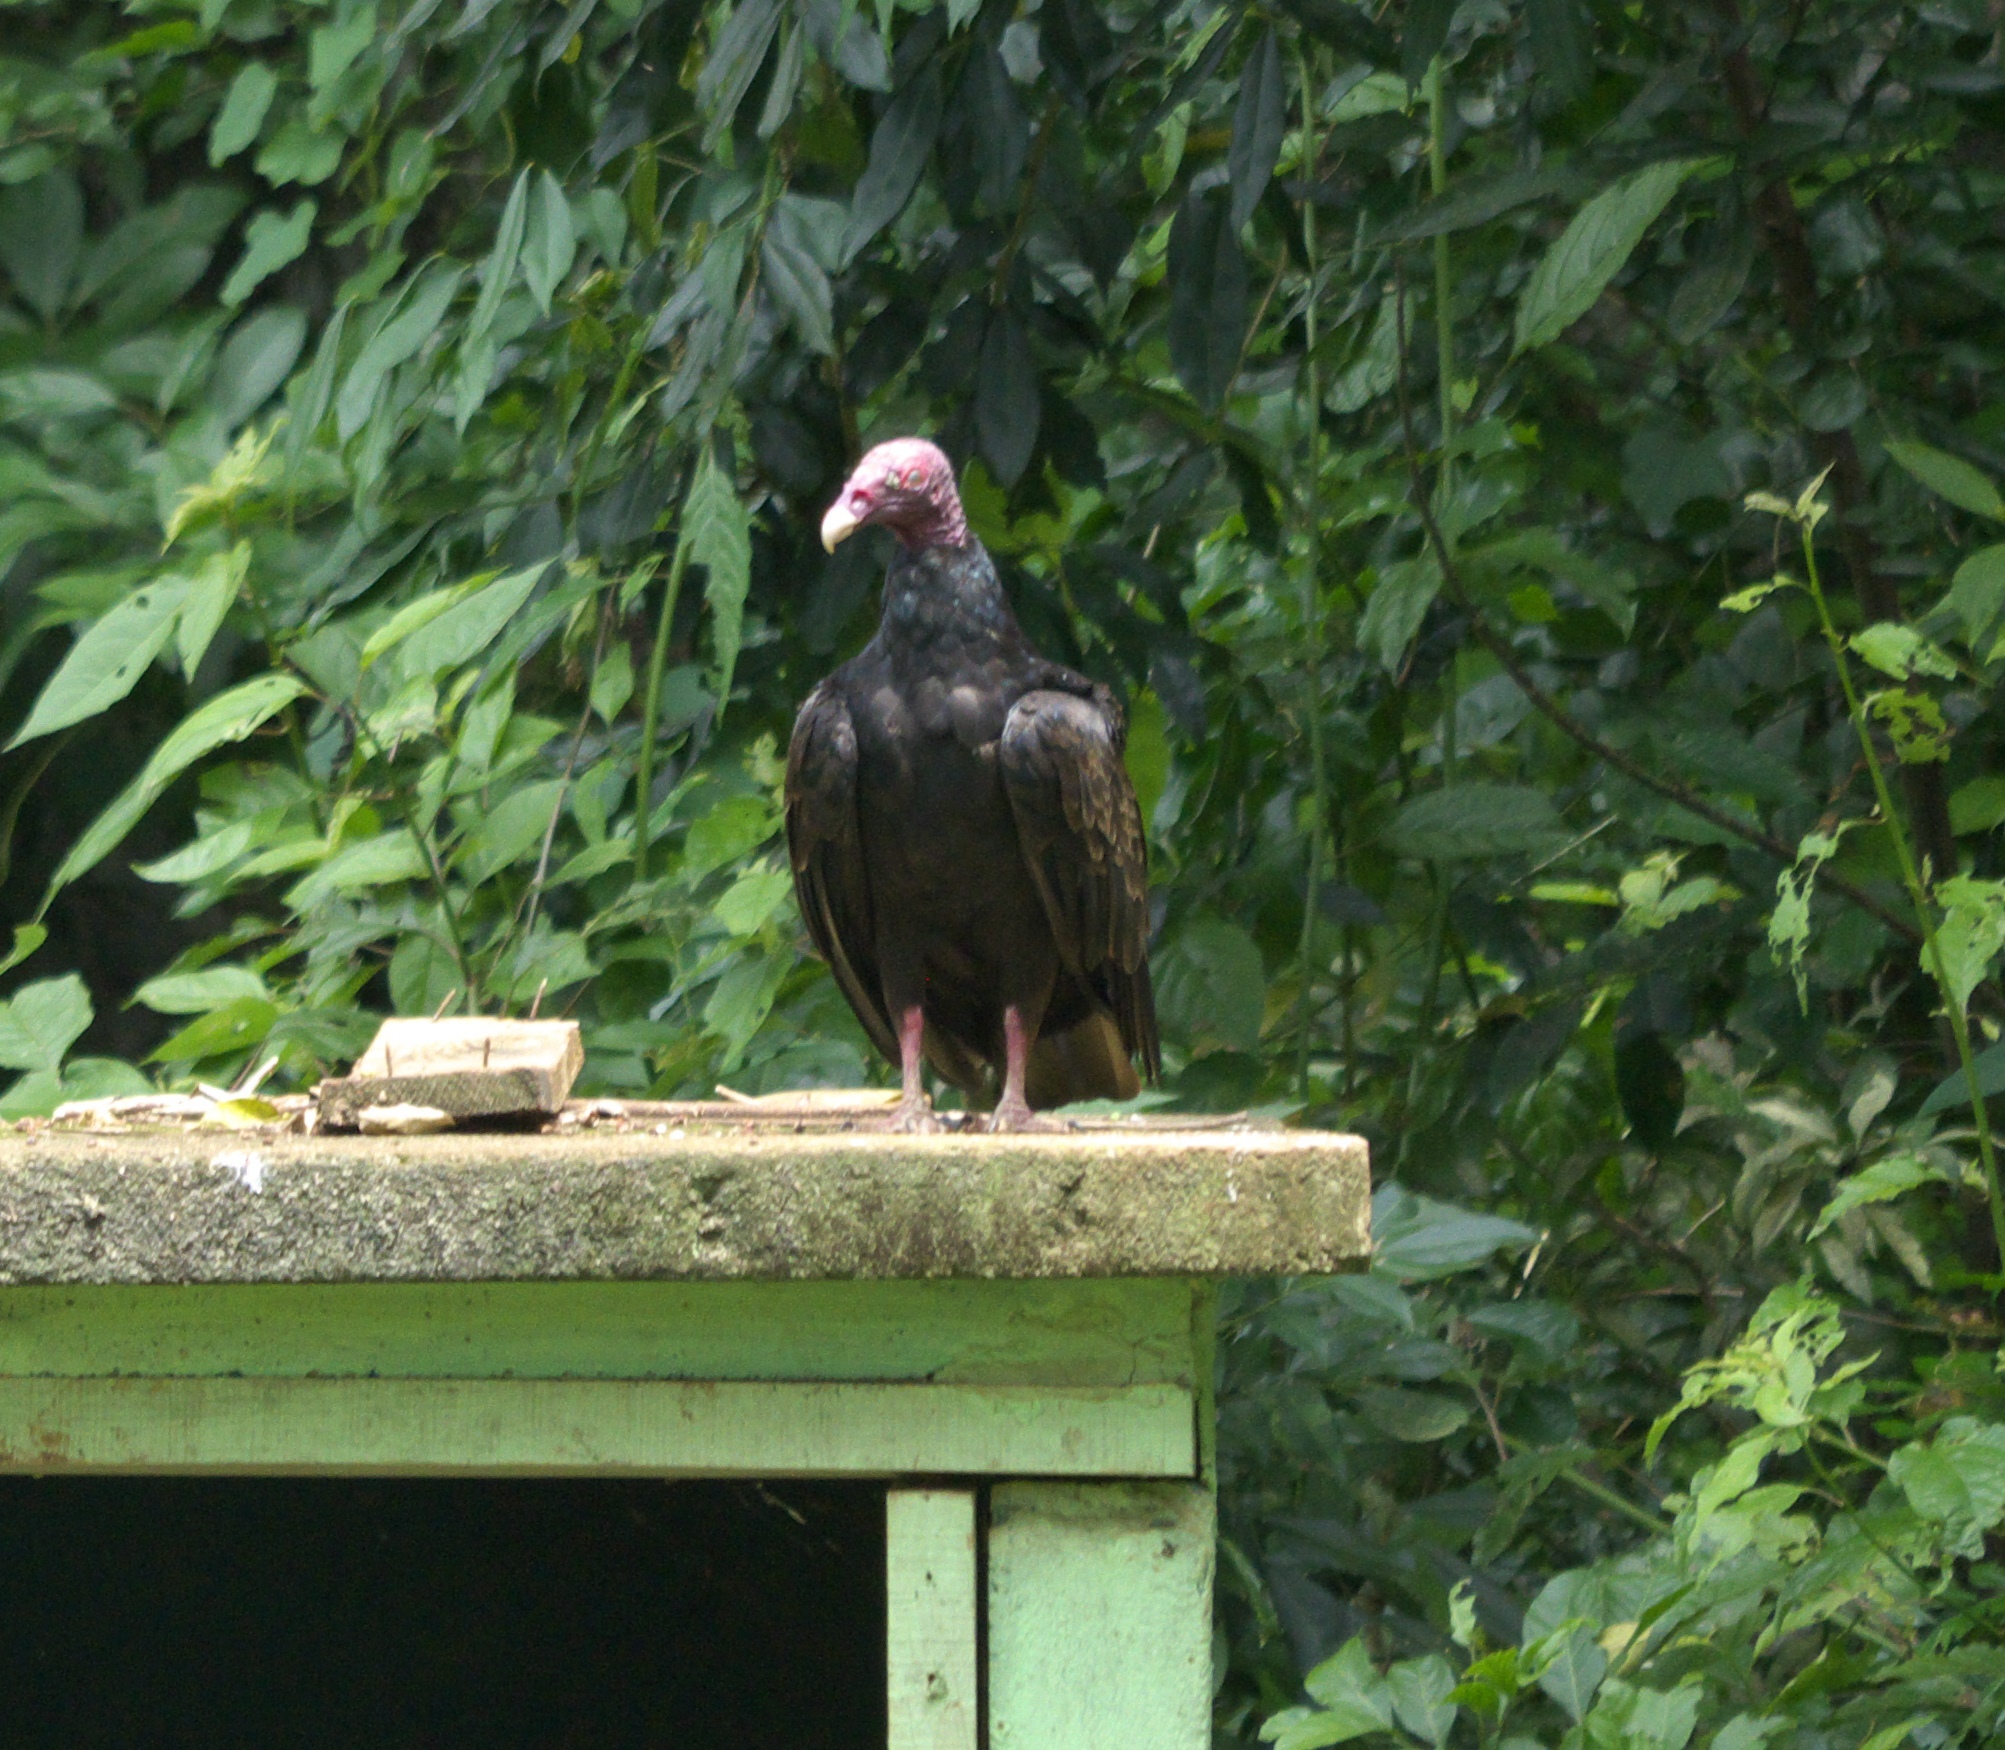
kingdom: Animalia
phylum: Chordata
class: Aves
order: Accipitriformes
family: Cathartidae
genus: Cathartes
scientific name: Cathartes aura
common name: Turkey vulture
